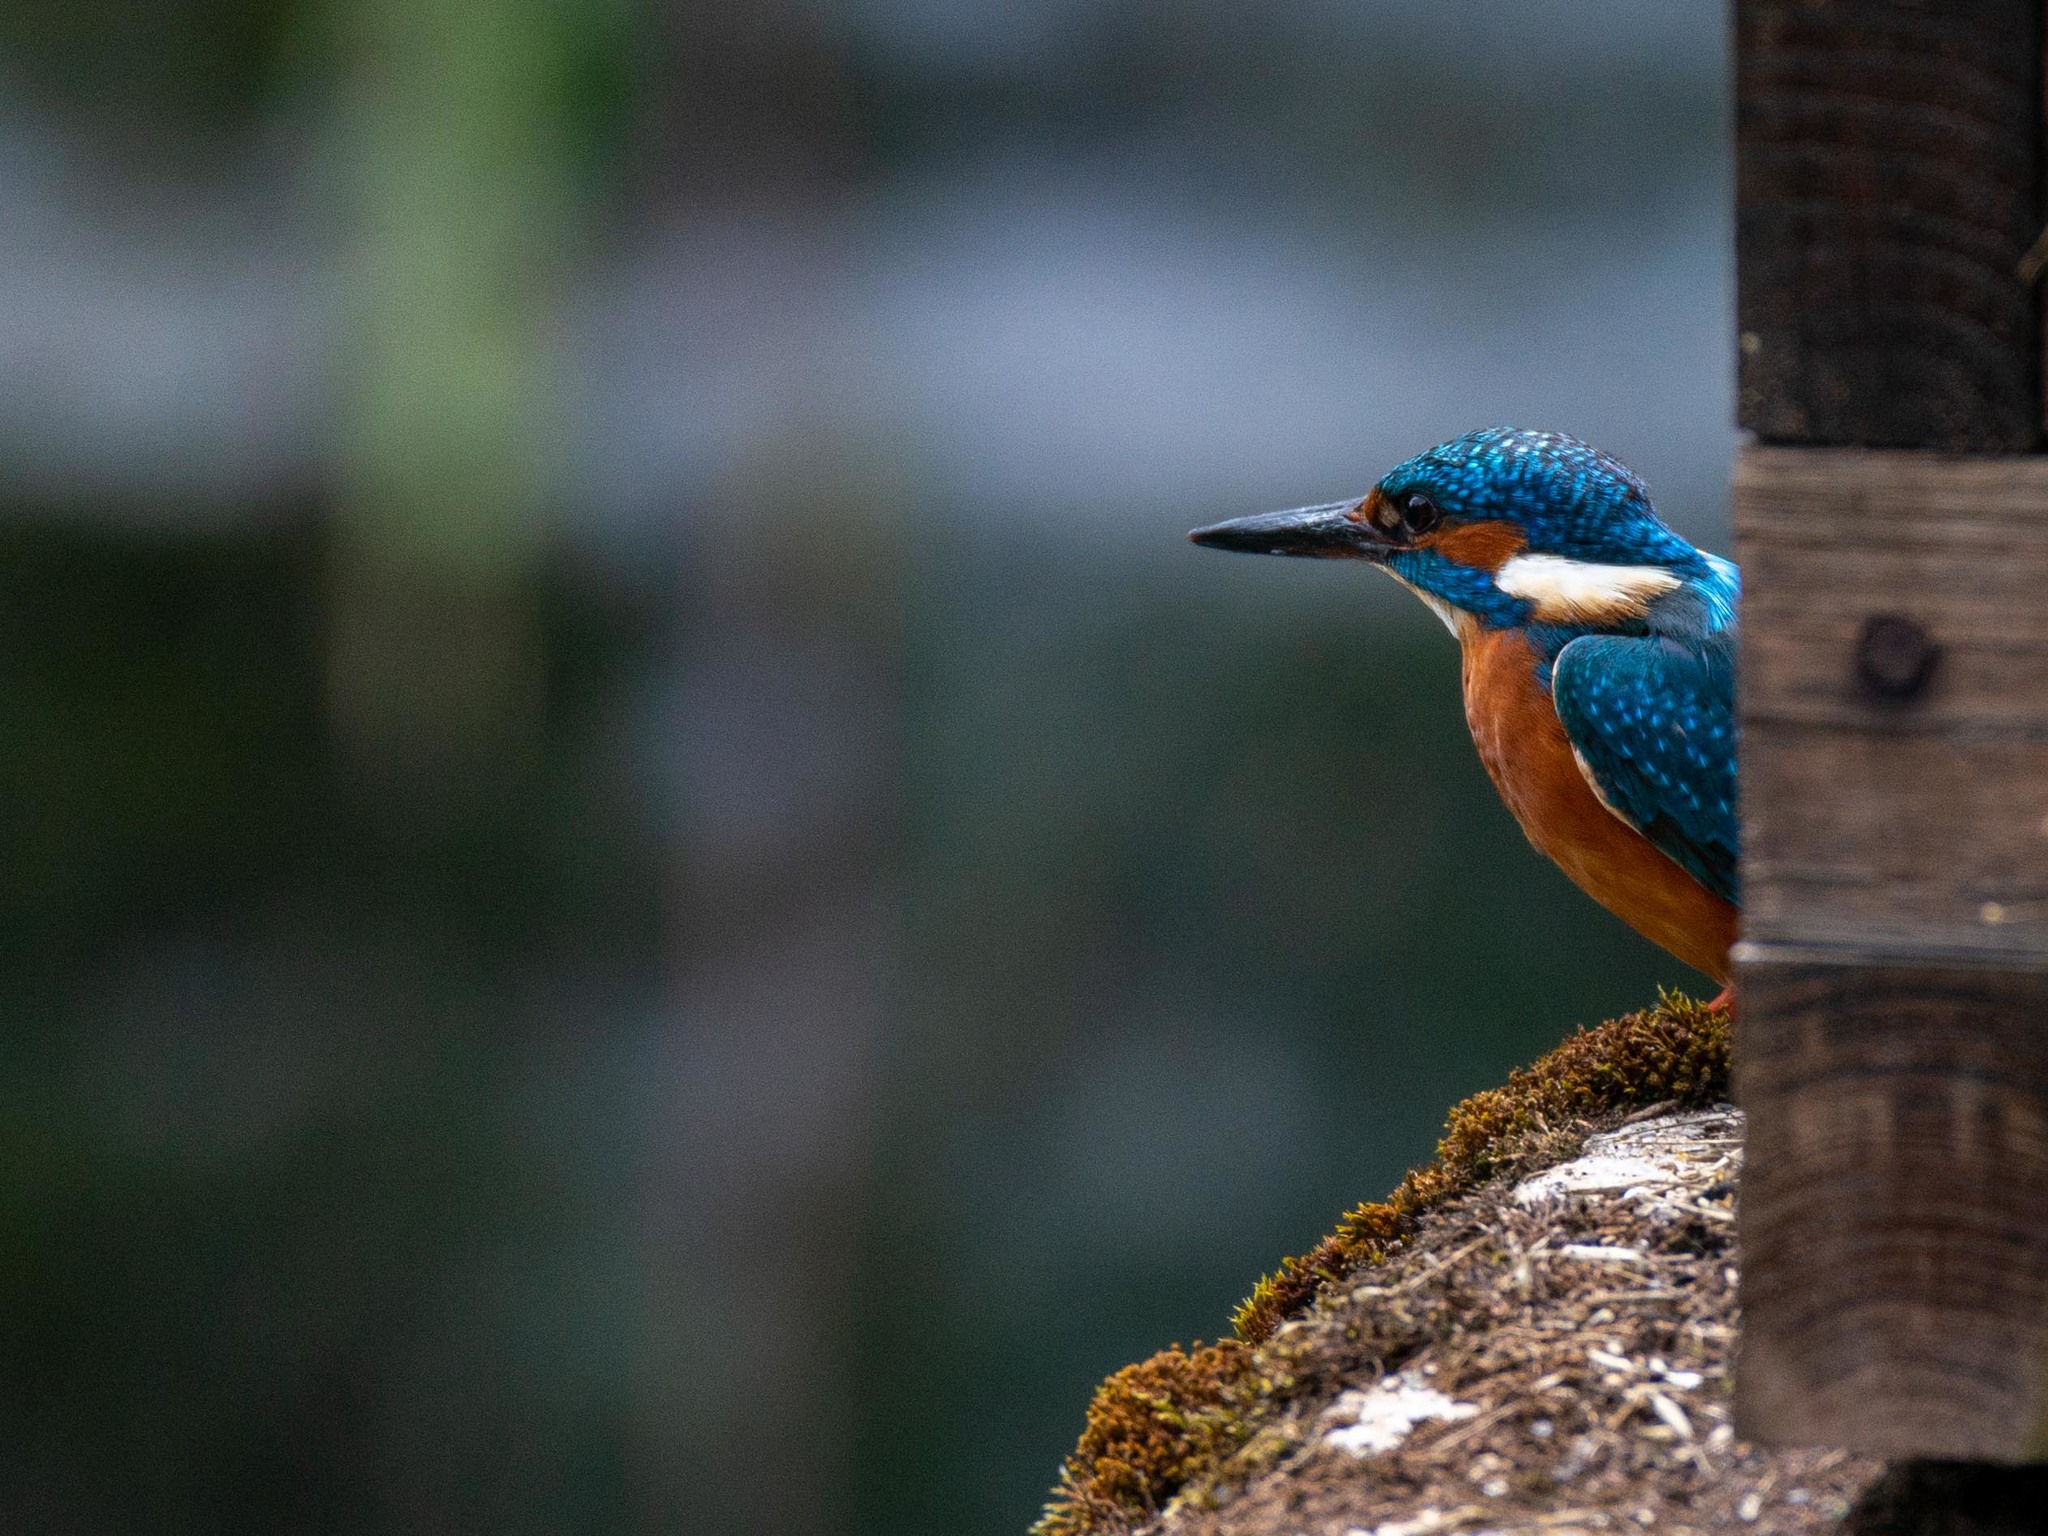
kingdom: Animalia
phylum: Chordata
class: Aves
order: Coraciiformes
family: Alcedinidae
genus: Alcedo
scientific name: Alcedo atthis
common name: Common kingfisher
